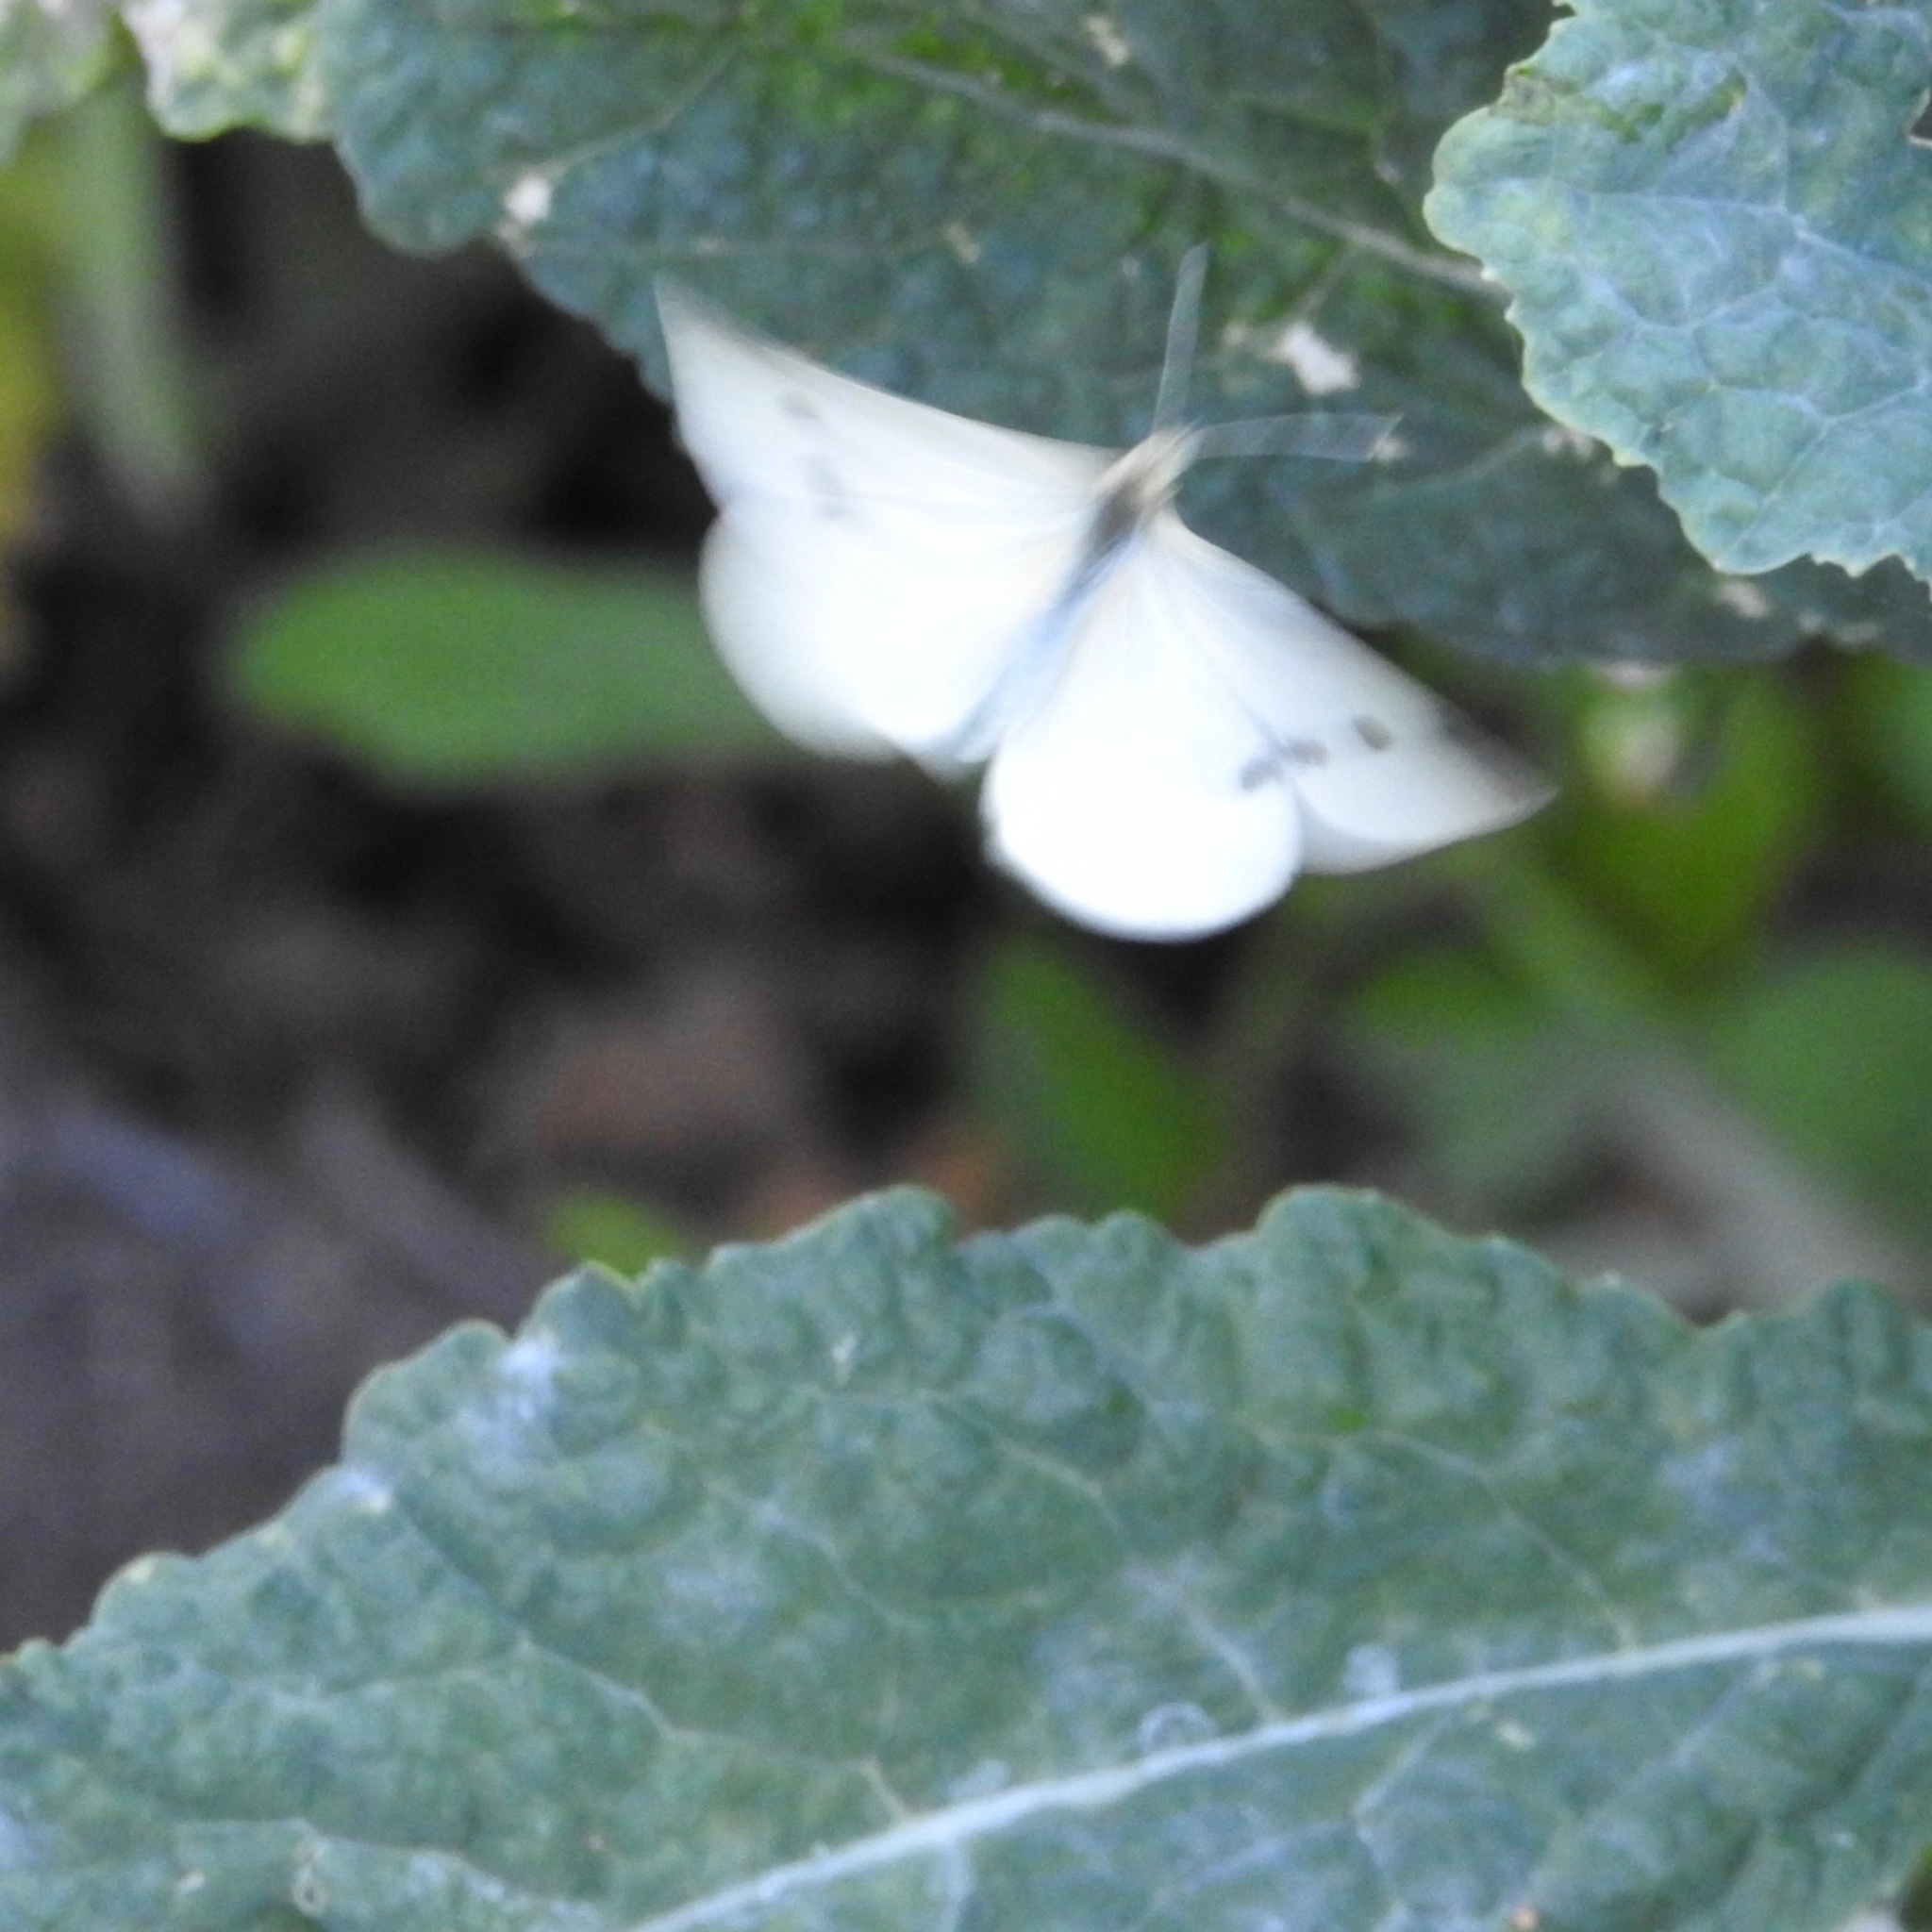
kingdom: Animalia
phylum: Arthropoda
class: Insecta
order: Lepidoptera
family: Pieridae
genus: Pieris
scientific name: Pieris rapae
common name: Small white
